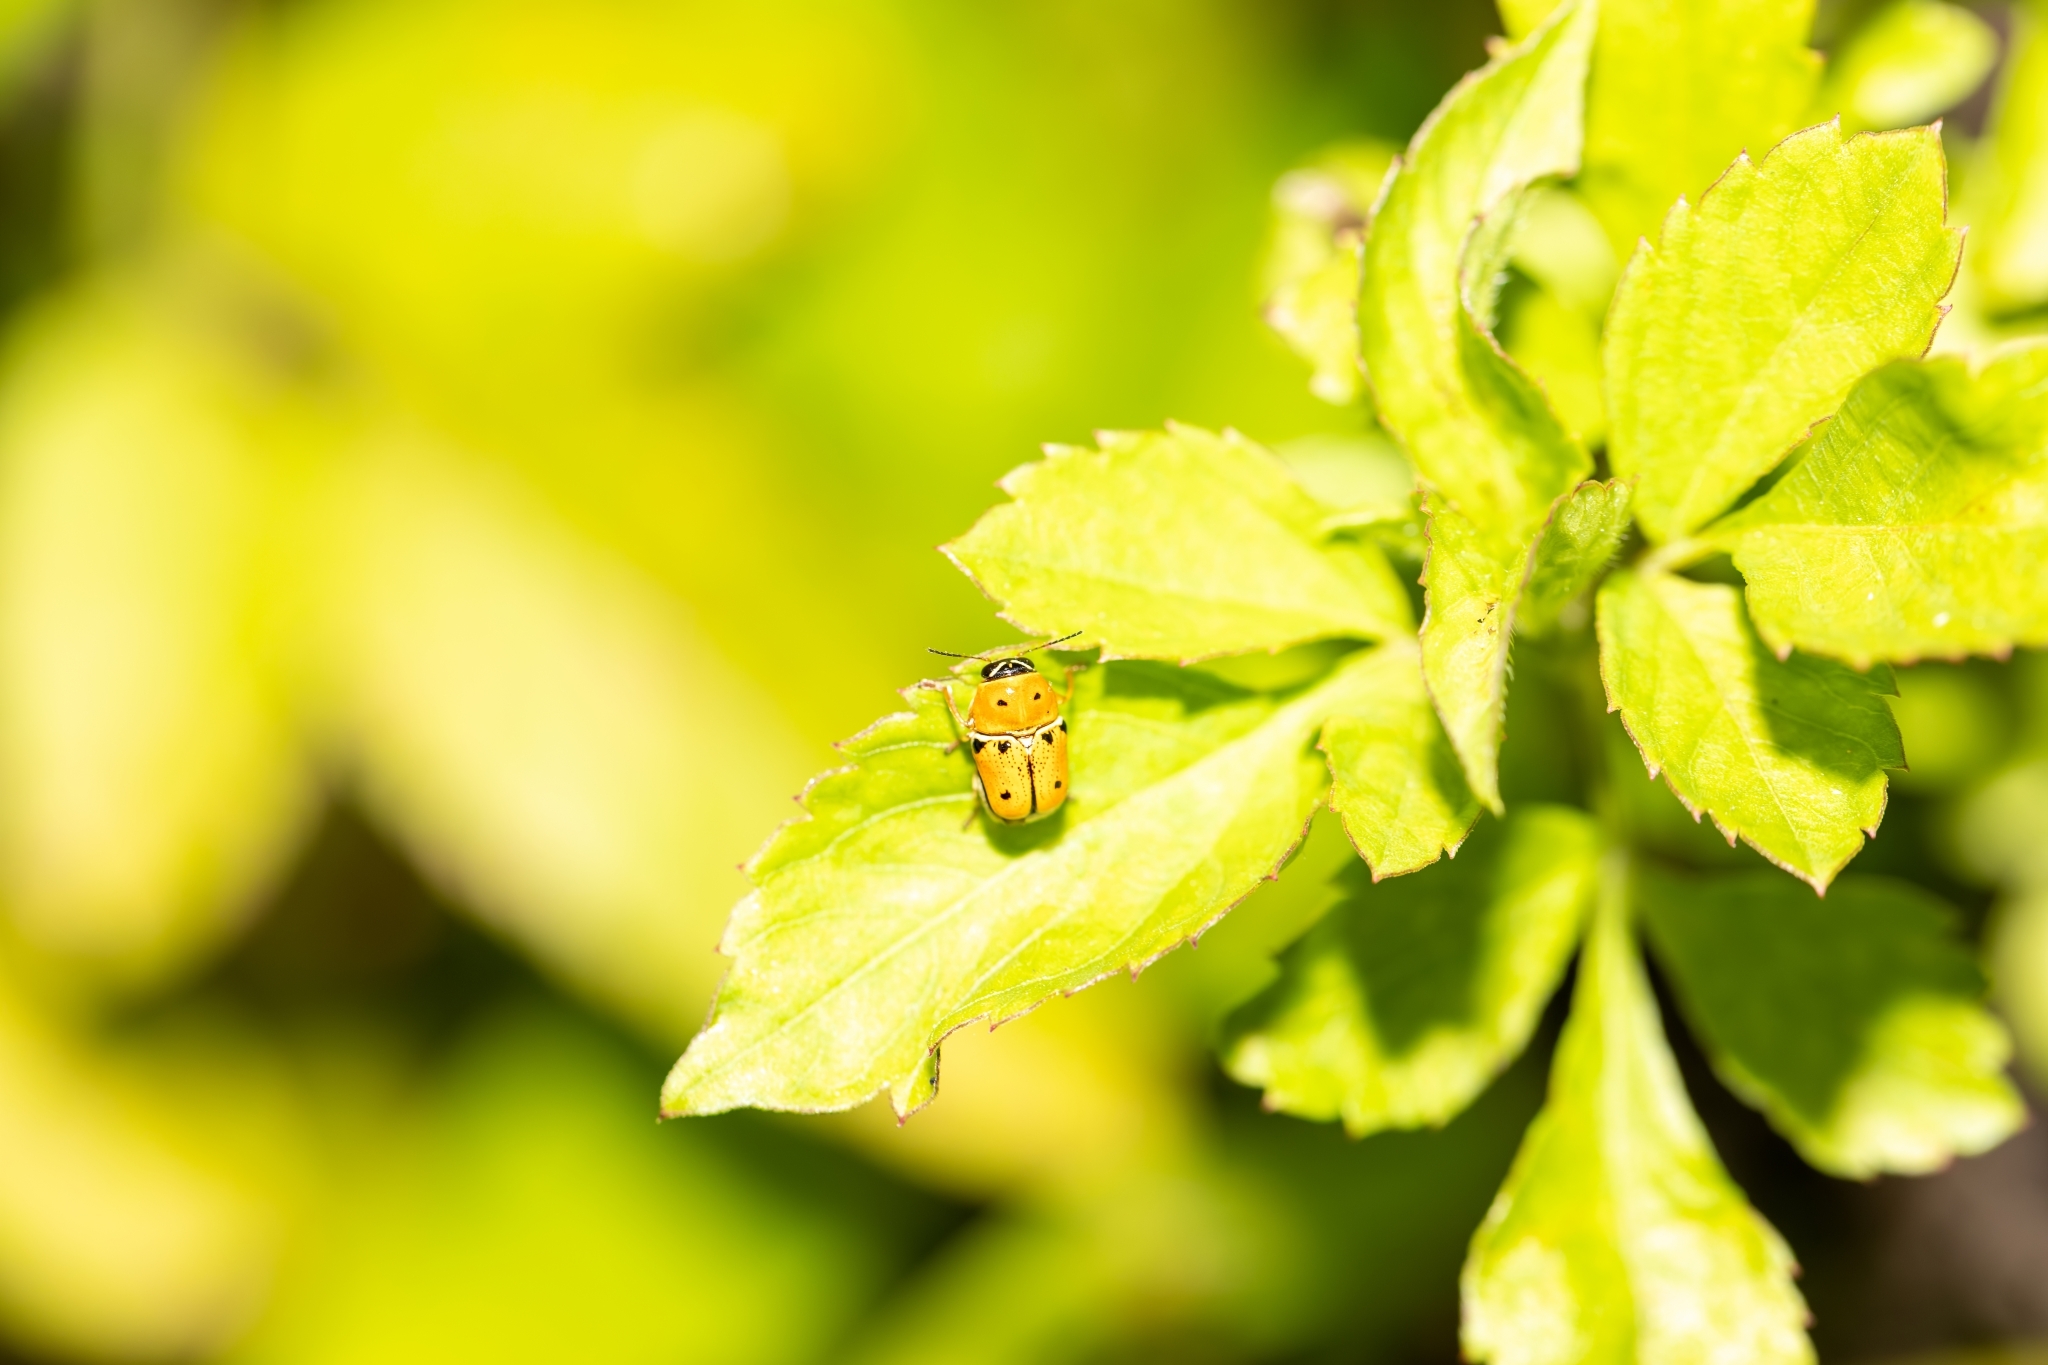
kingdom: Animalia
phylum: Arthropoda
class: Insecta
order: Coleoptera
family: Chrysomelidae
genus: Griburius
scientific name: Griburius larvatus
